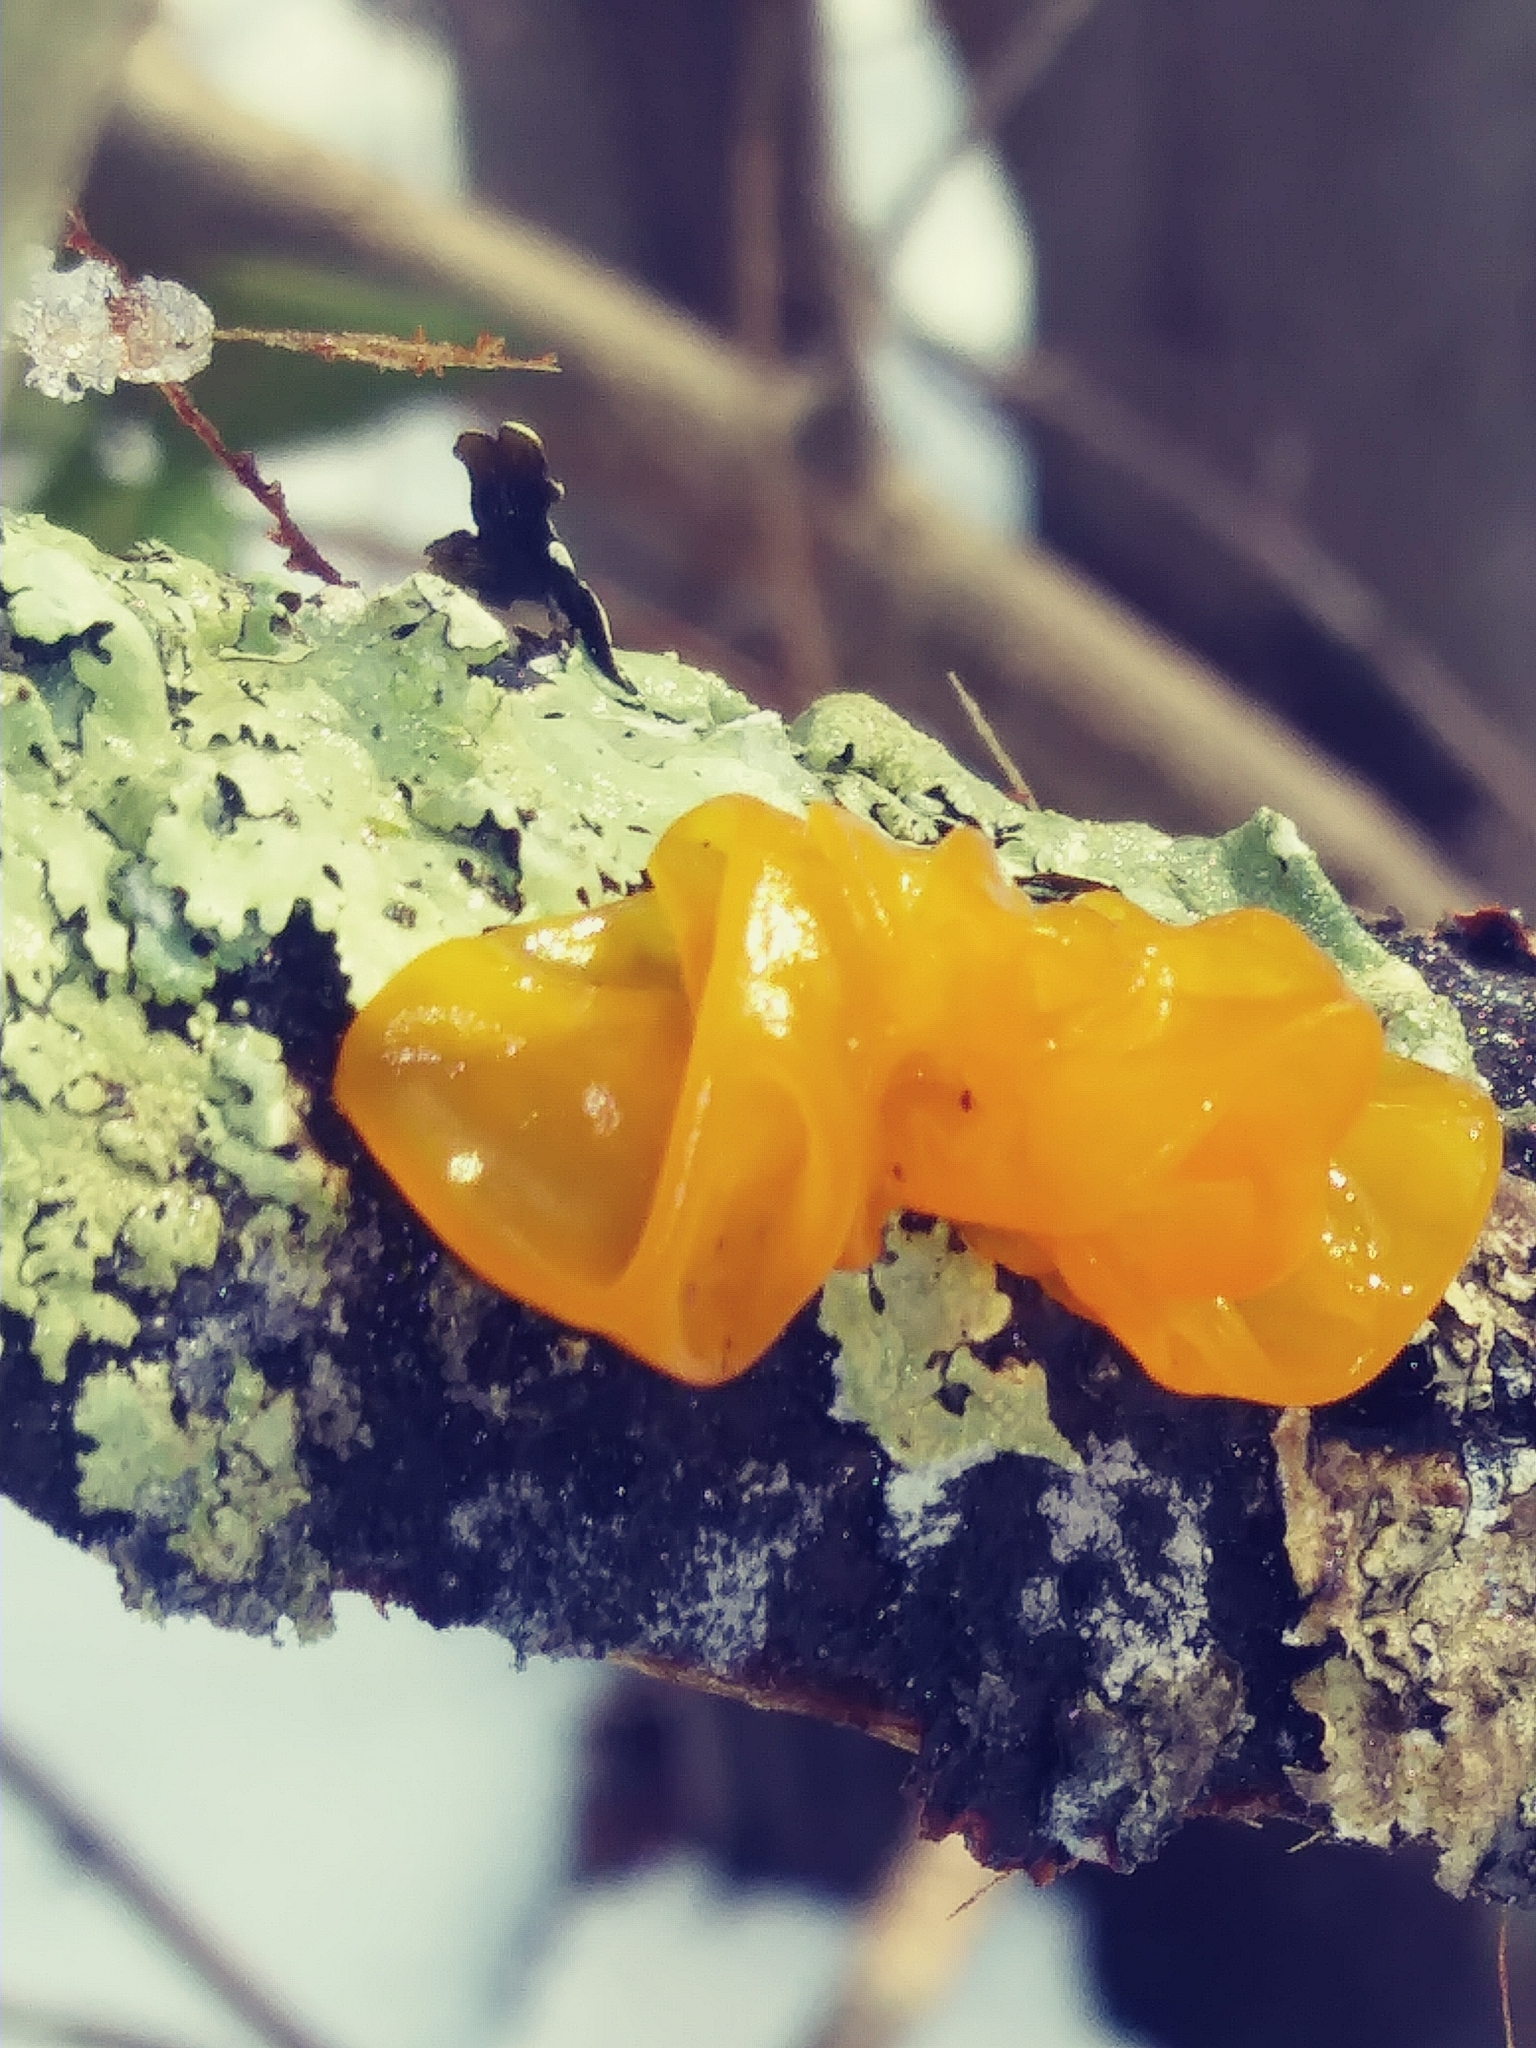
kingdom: Fungi
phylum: Basidiomycota
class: Tremellomycetes
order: Tremellales
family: Tremellaceae
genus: Tremella
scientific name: Tremella mesenterica
